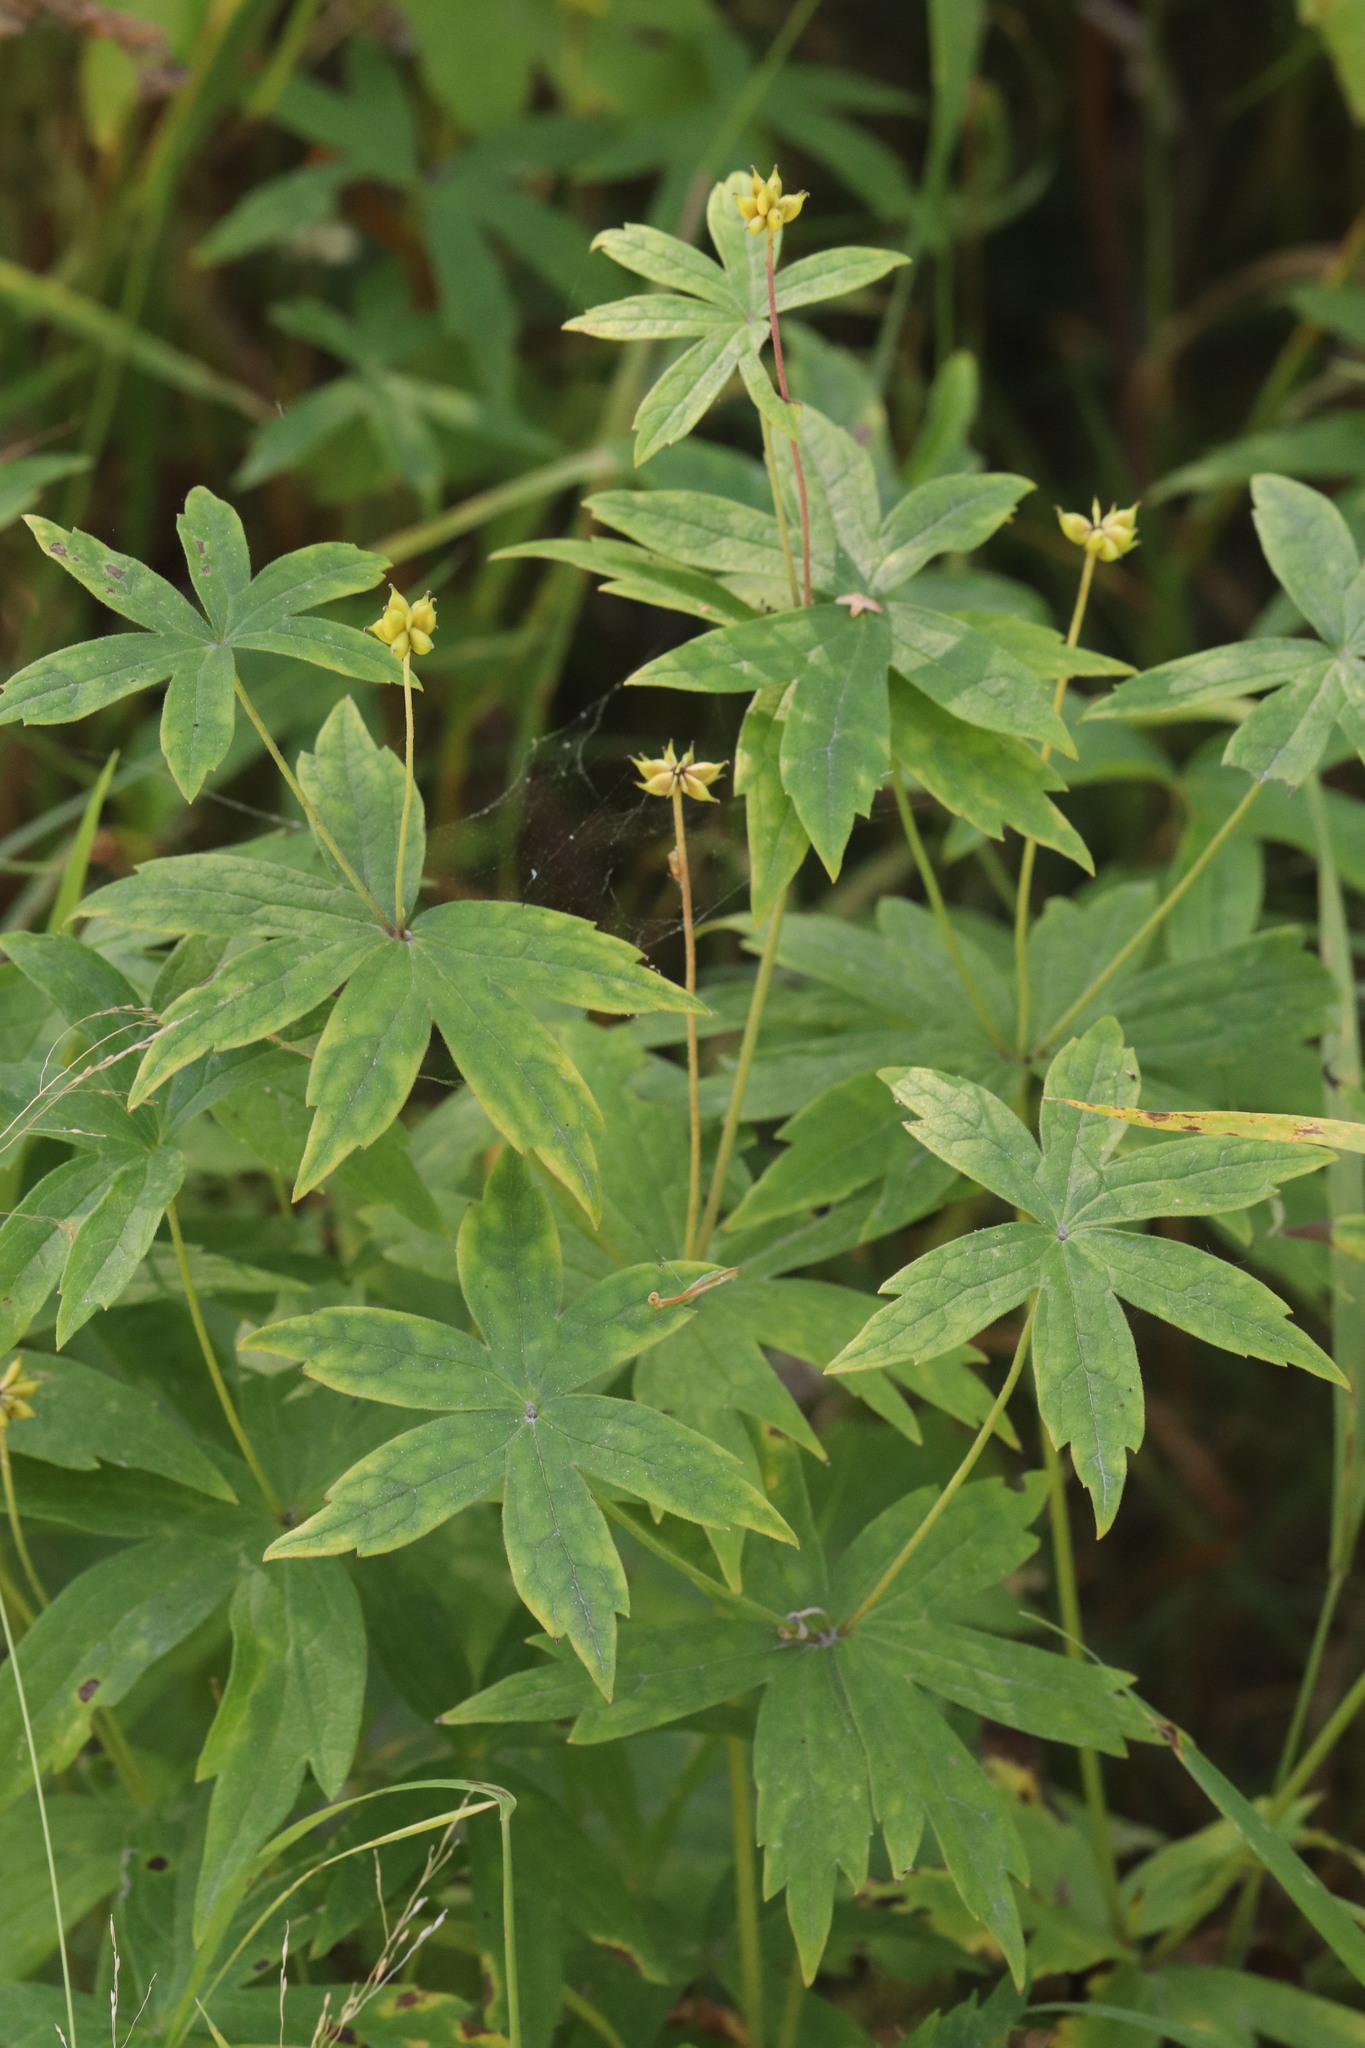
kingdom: Plantae
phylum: Tracheophyta
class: Magnoliopsida
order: Ranunculales
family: Ranunculaceae
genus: Anemonastrum
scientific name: Anemonastrum dichotomum
